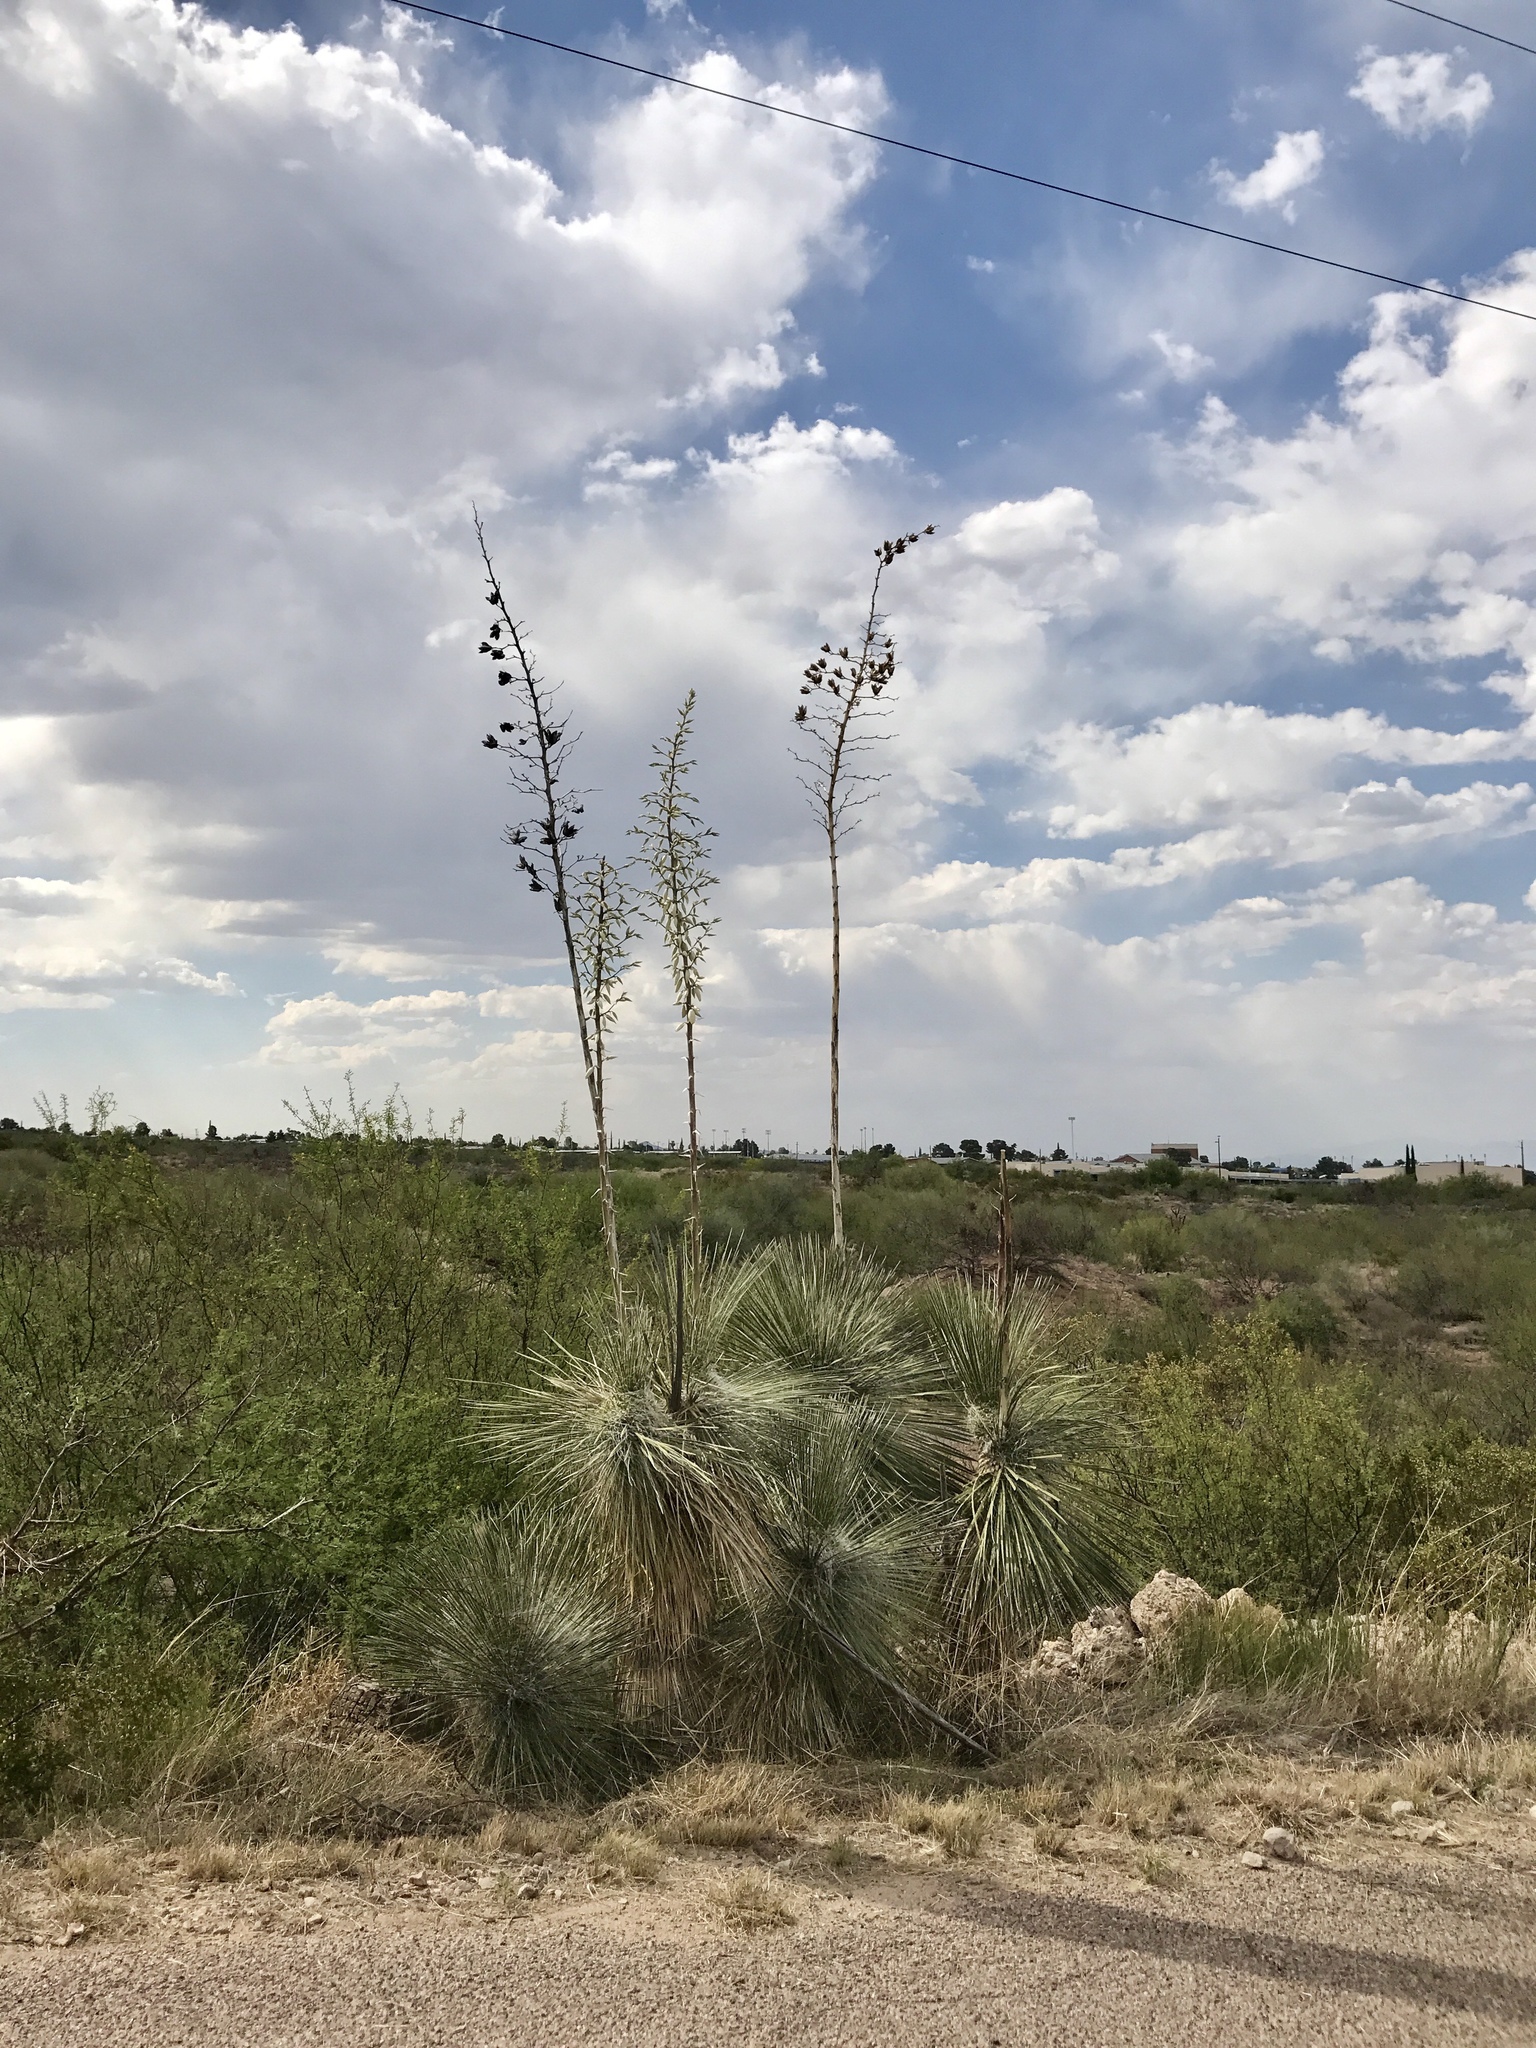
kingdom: Plantae
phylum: Tracheophyta
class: Liliopsida
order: Asparagales
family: Asparagaceae
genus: Yucca
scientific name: Yucca elata
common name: Palmella
